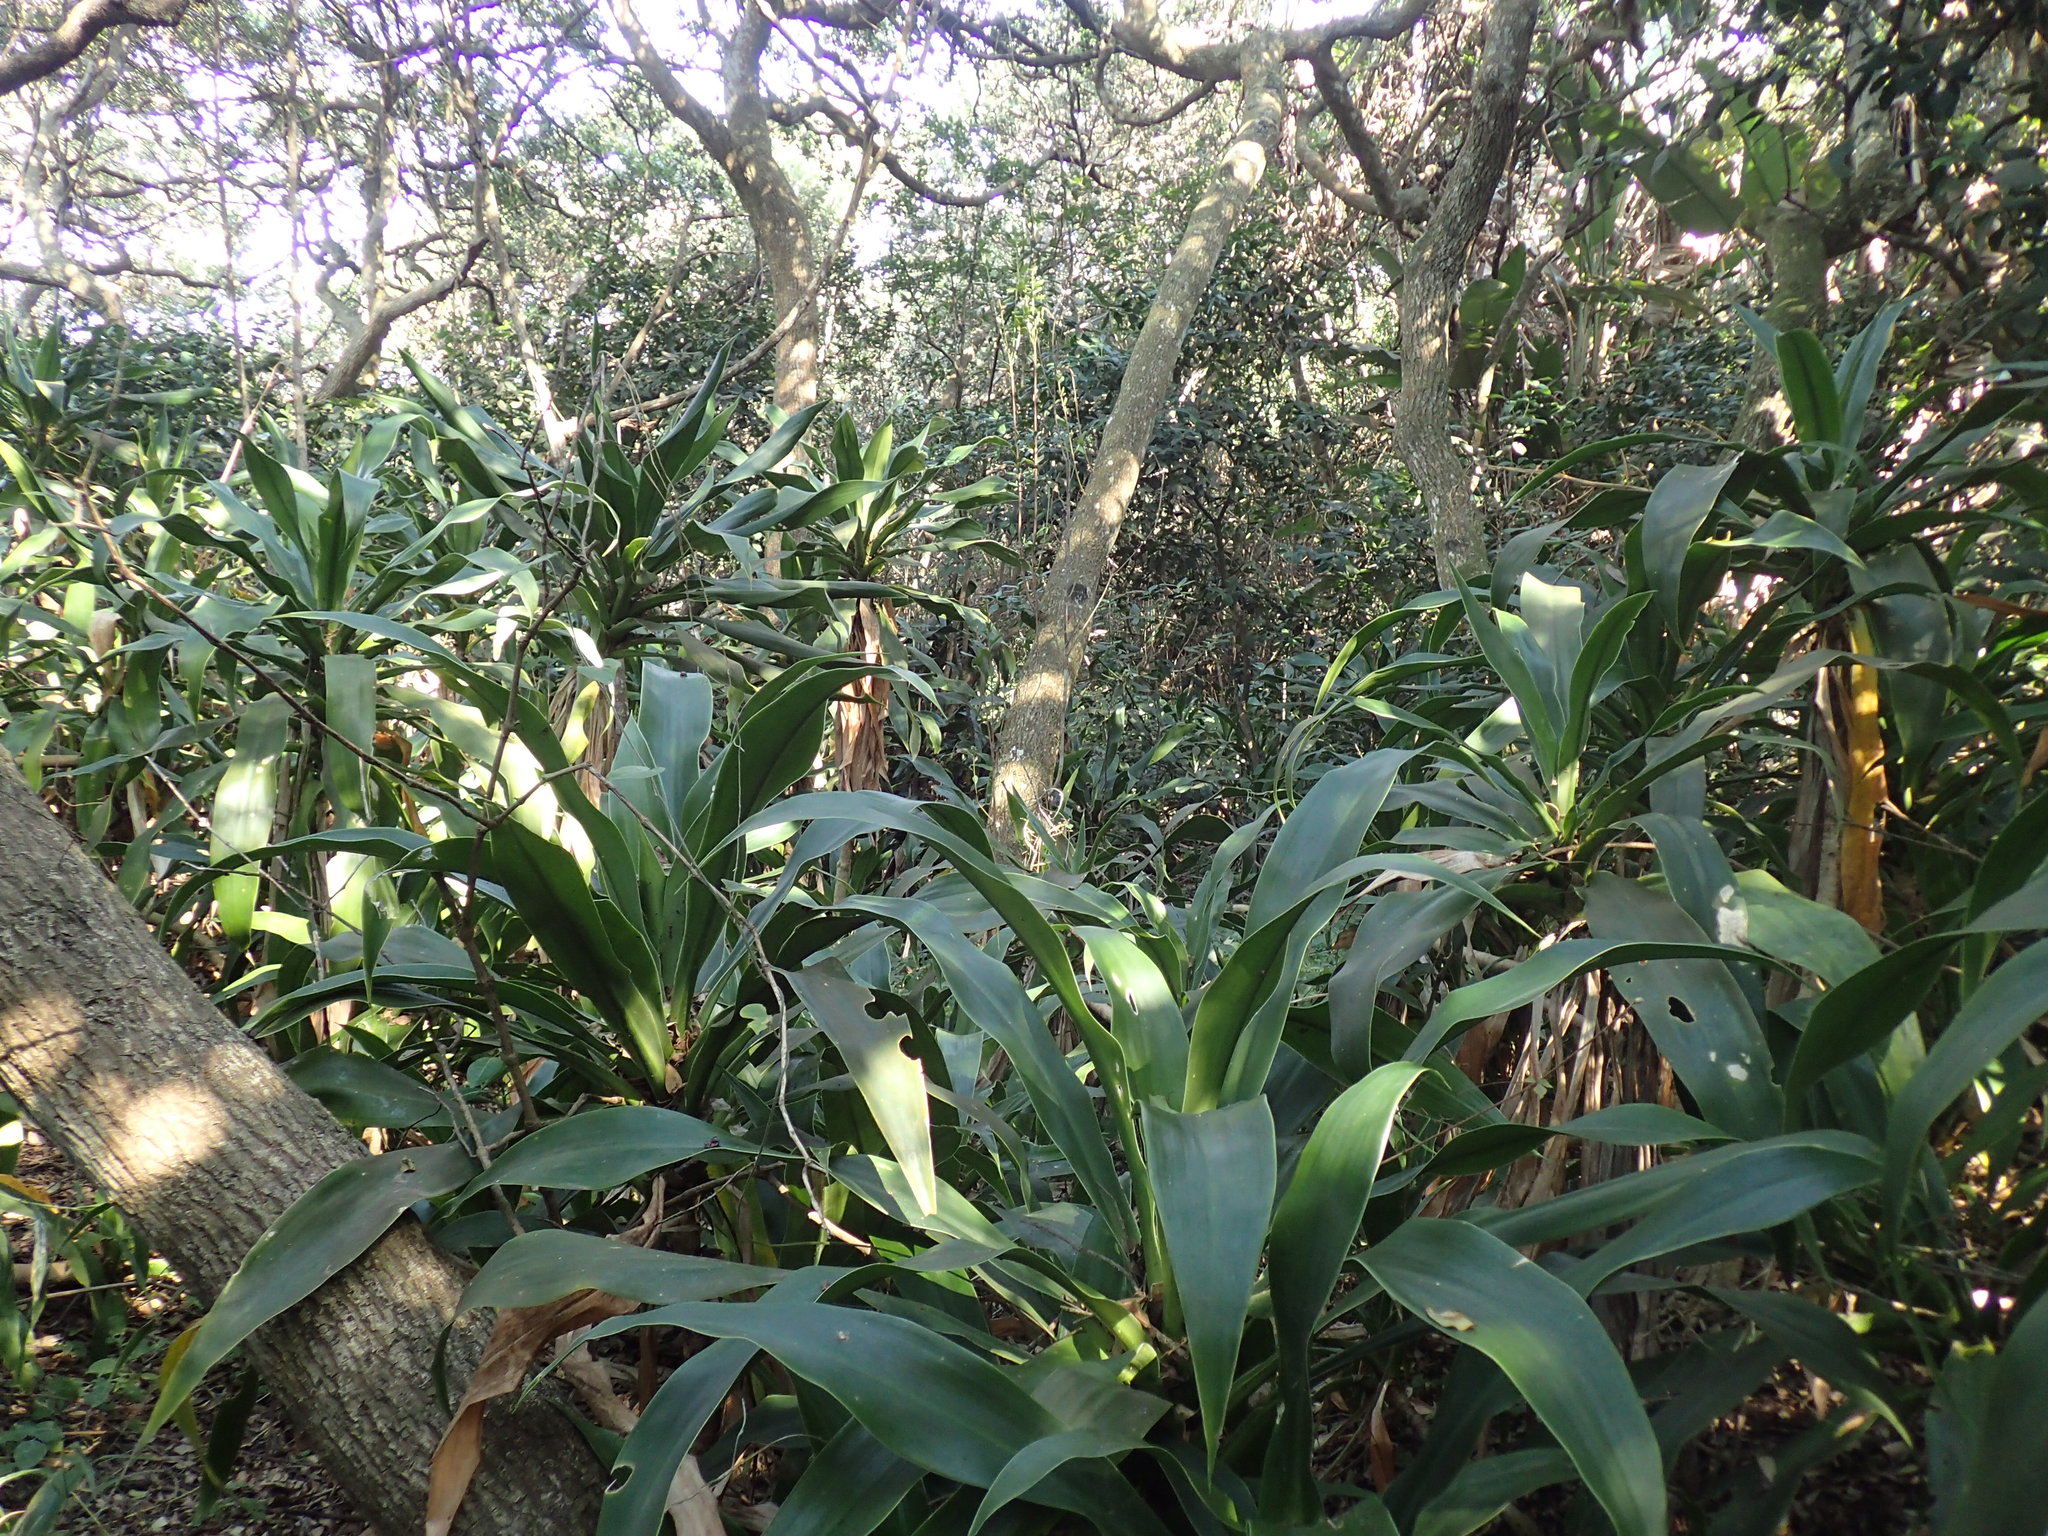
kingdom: Plantae
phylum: Tracheophyta
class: Liliopsida
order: Asparagales
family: Asparagaceae
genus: Dracaena
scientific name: Dracaena aletriformis
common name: Large-leaved dragon tree
